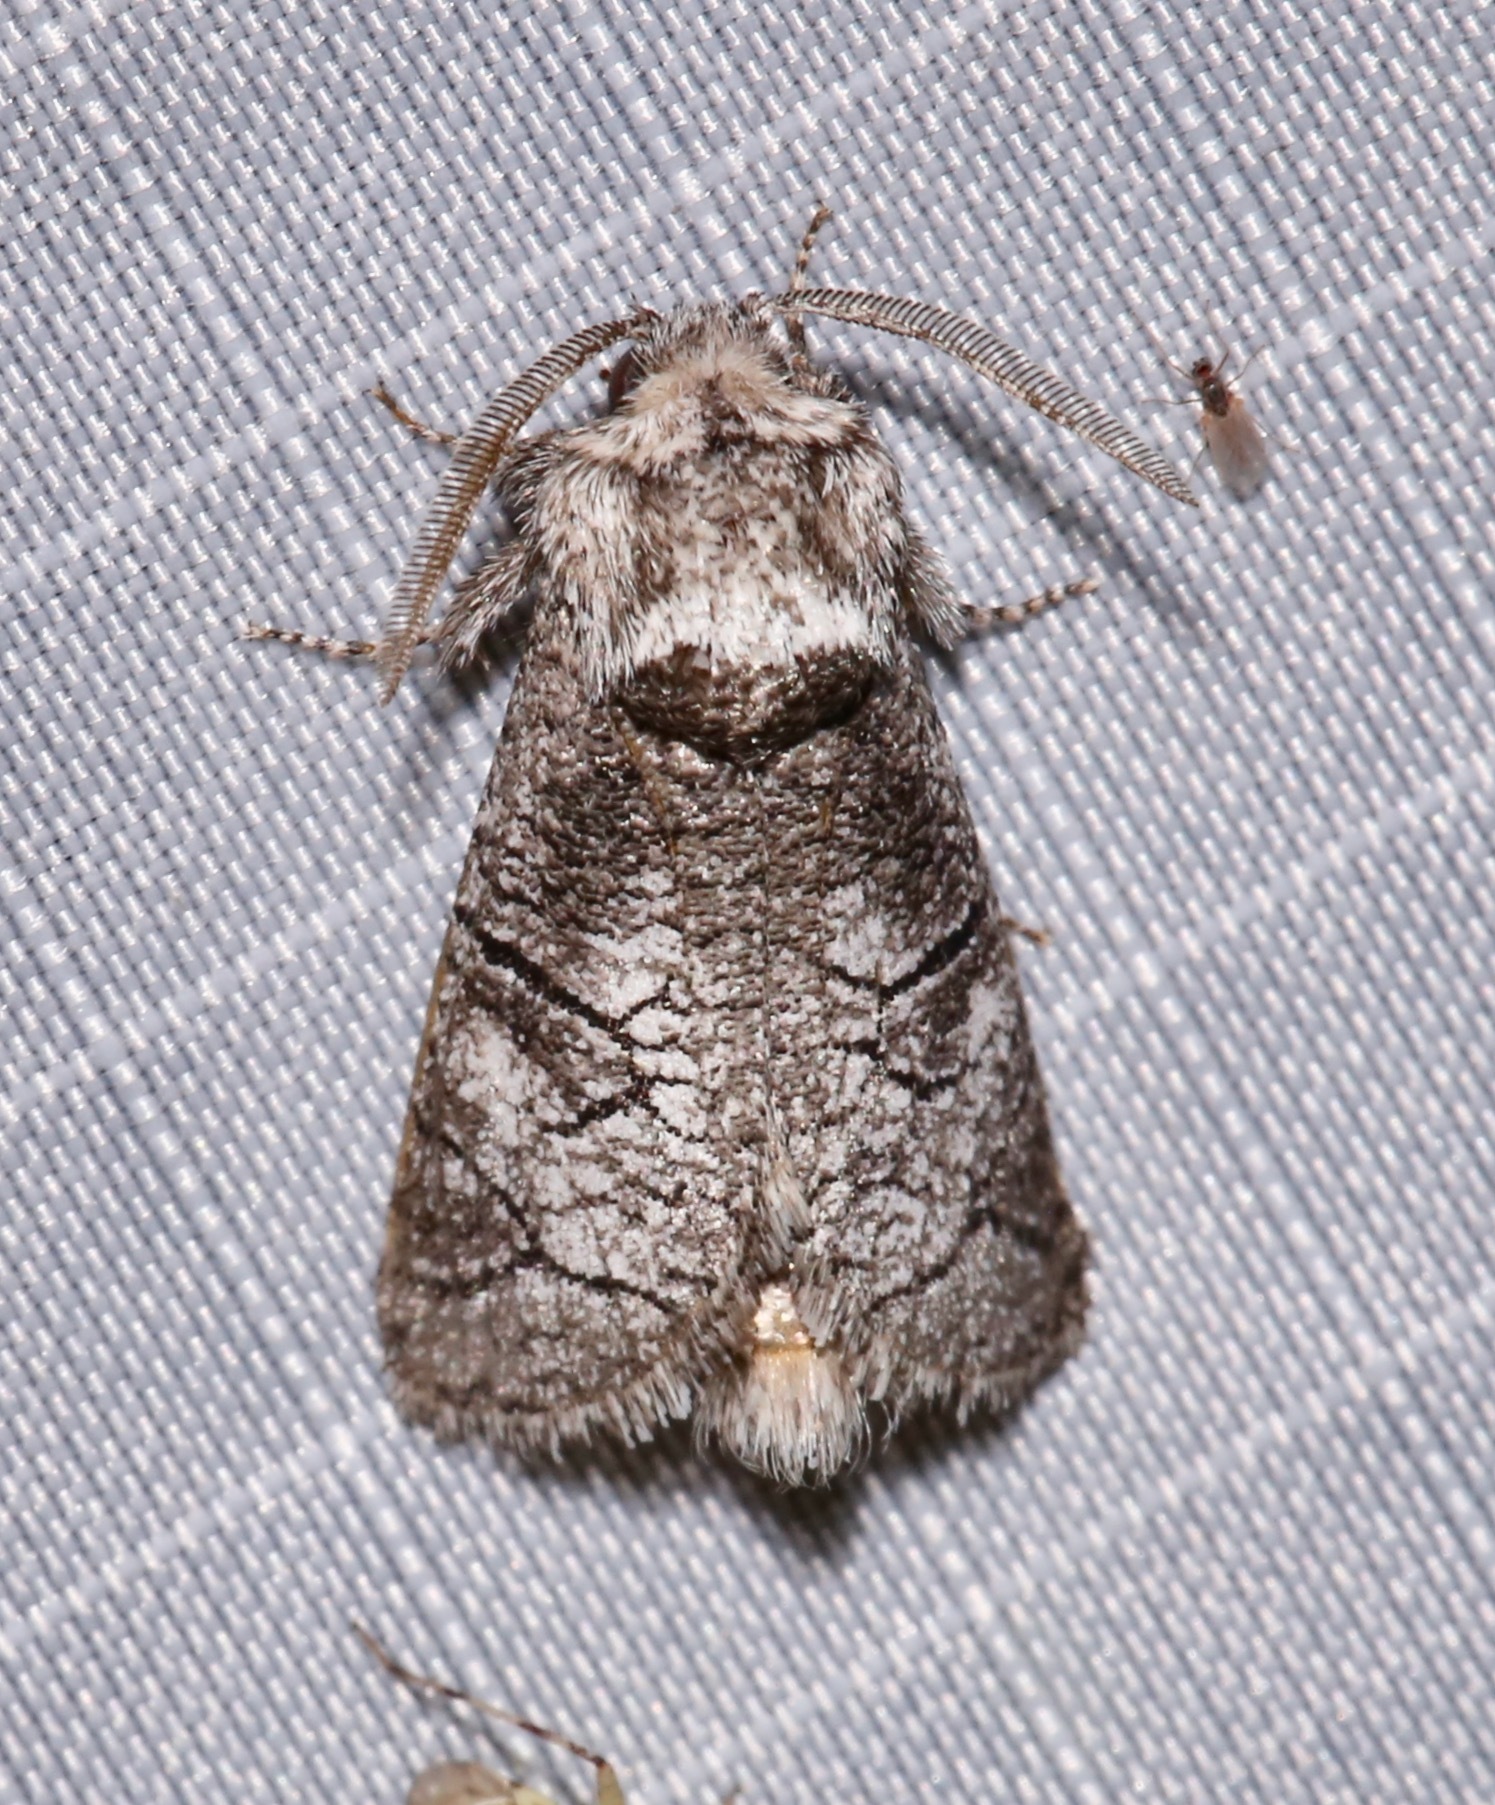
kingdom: Animalia
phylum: Arthropoda
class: Insecta
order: Lepidoptera
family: Cossidae
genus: Fania
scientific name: Fania nanus
